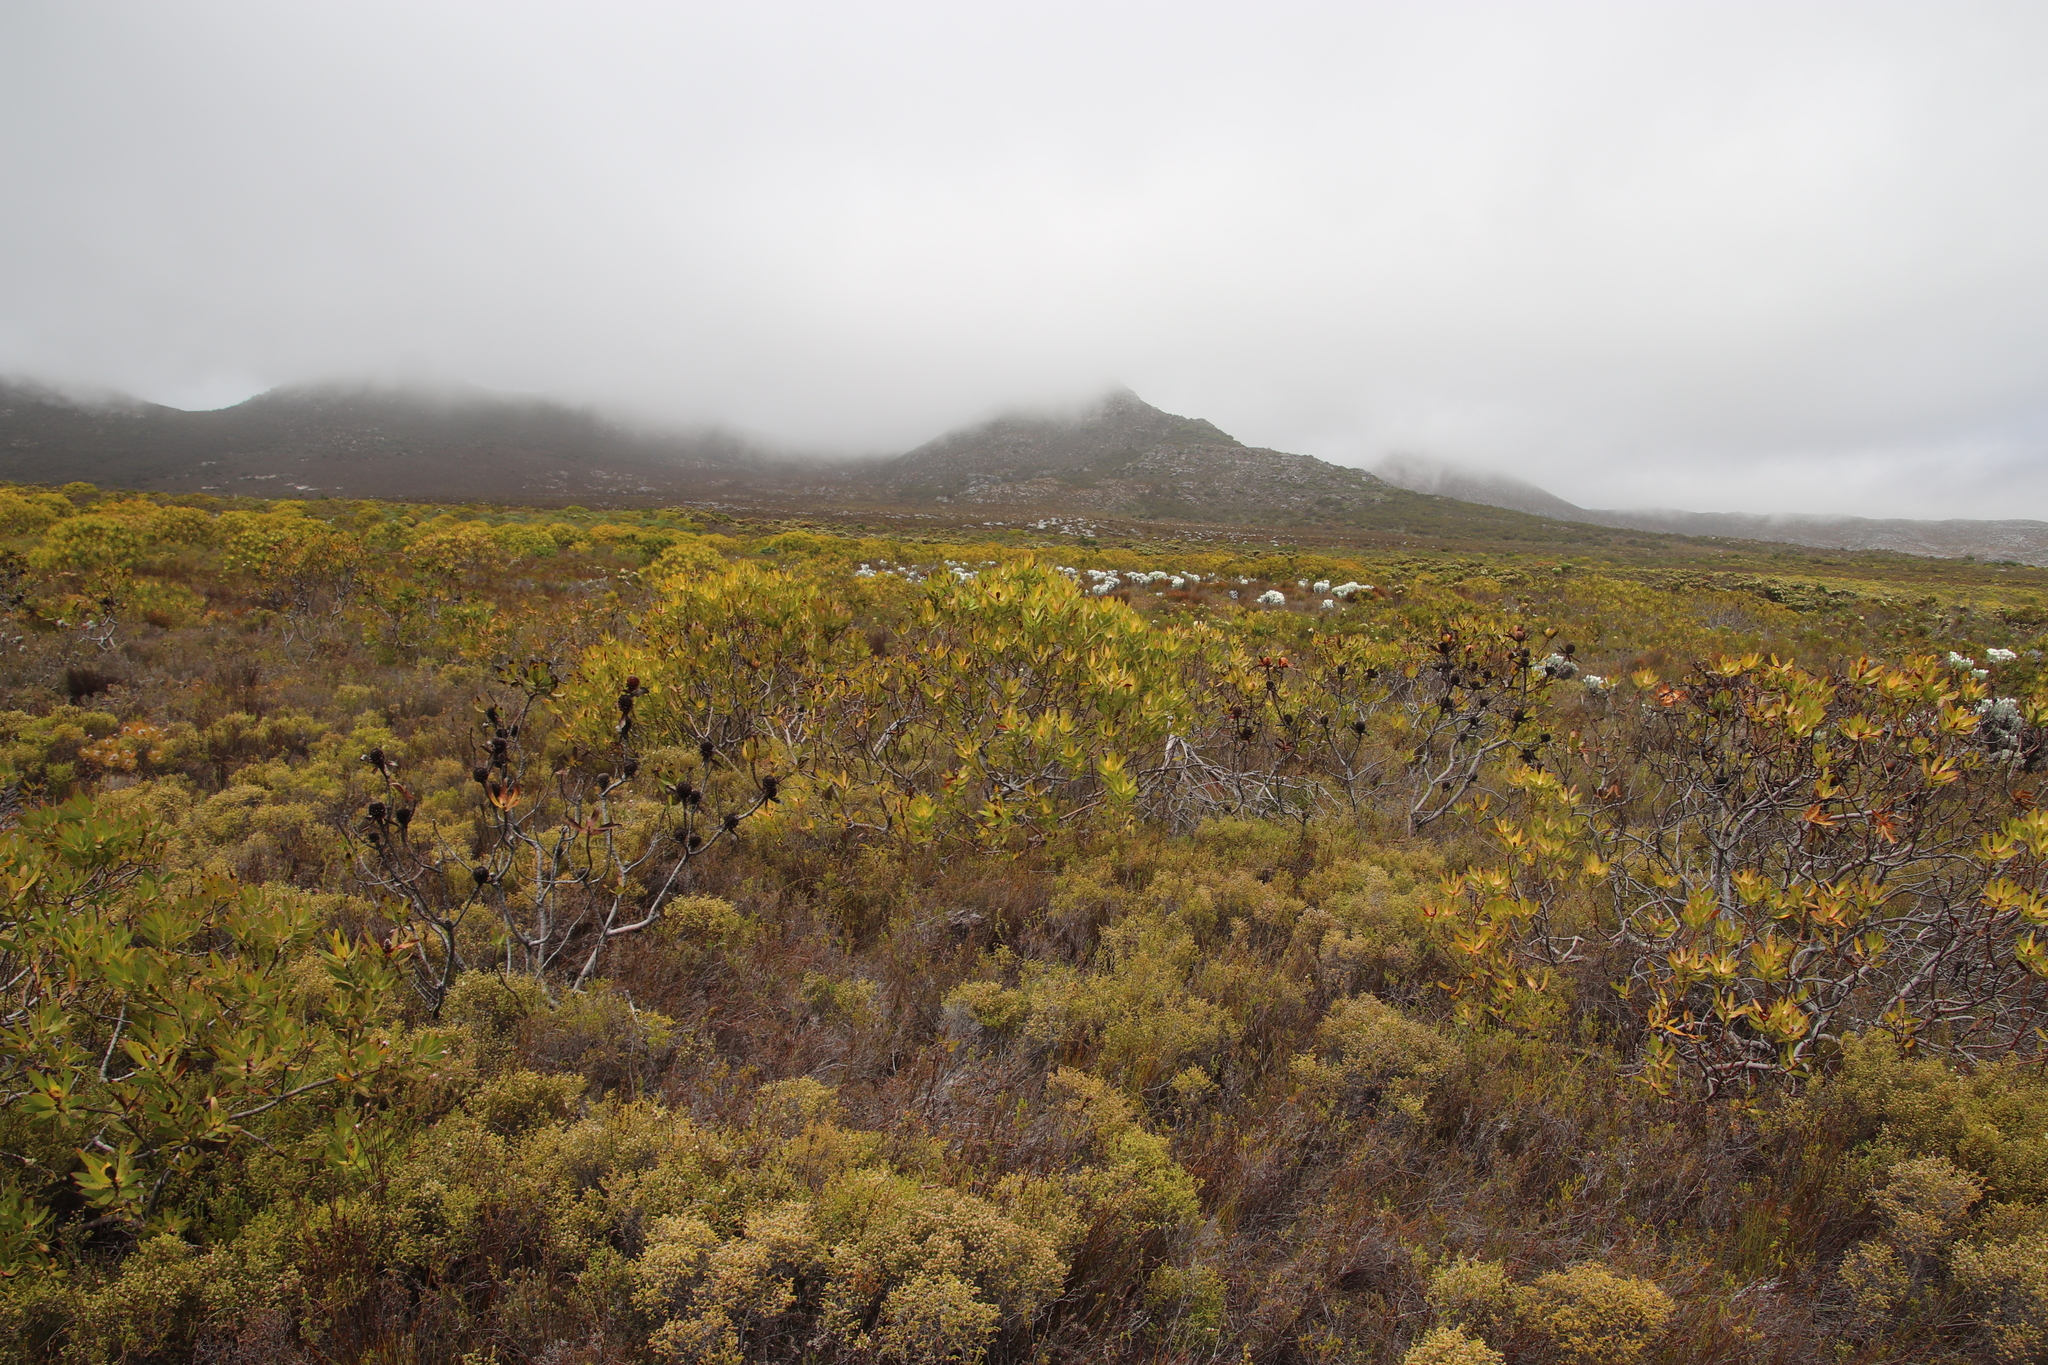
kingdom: Plantae
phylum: Tracheophyta
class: Magnoliopsida
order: Proteales
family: Proteaceae
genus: Leucadendron
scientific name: Leucadendron laureolum
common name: Golden sunshinebush
